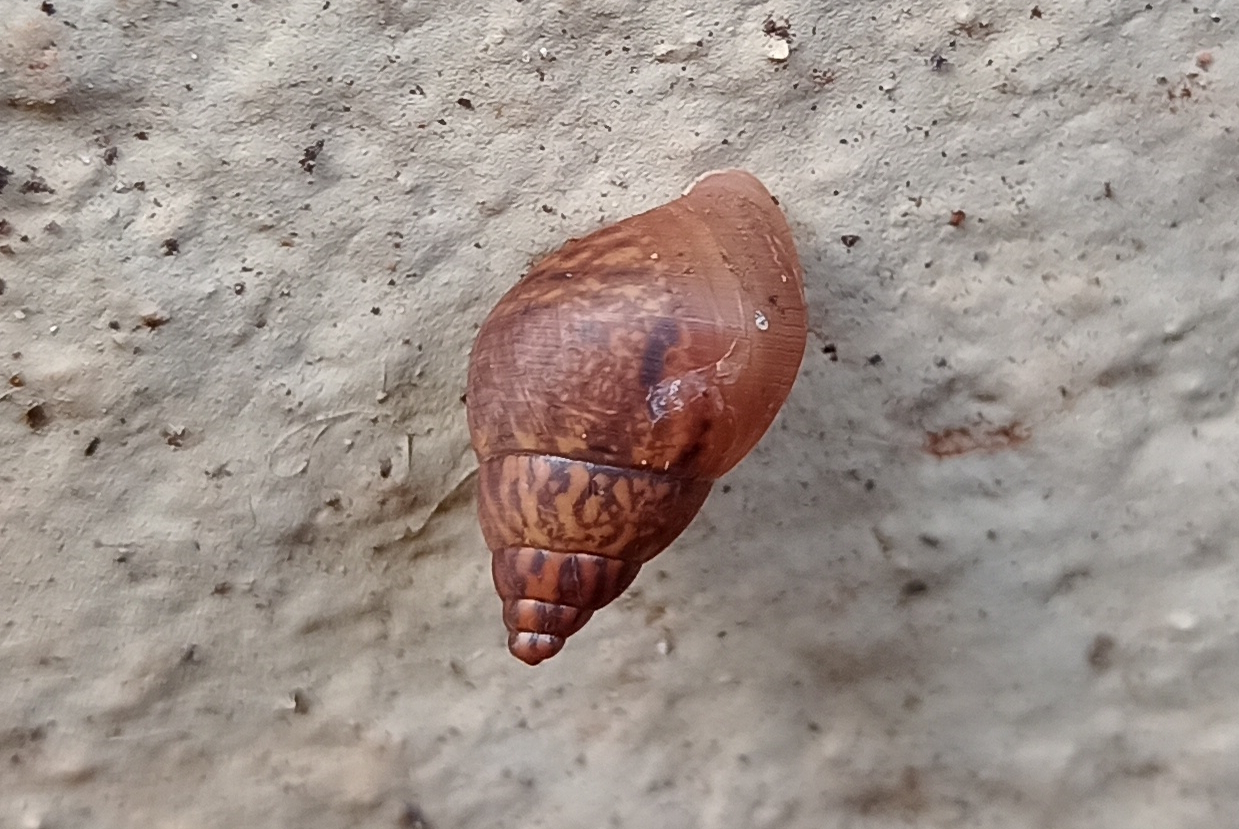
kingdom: Animalia
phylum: Mollusca
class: Gastropoda
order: Stylommatophora
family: Bulimulidae
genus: Bulimulus
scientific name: Bulimulus tenuissimus
